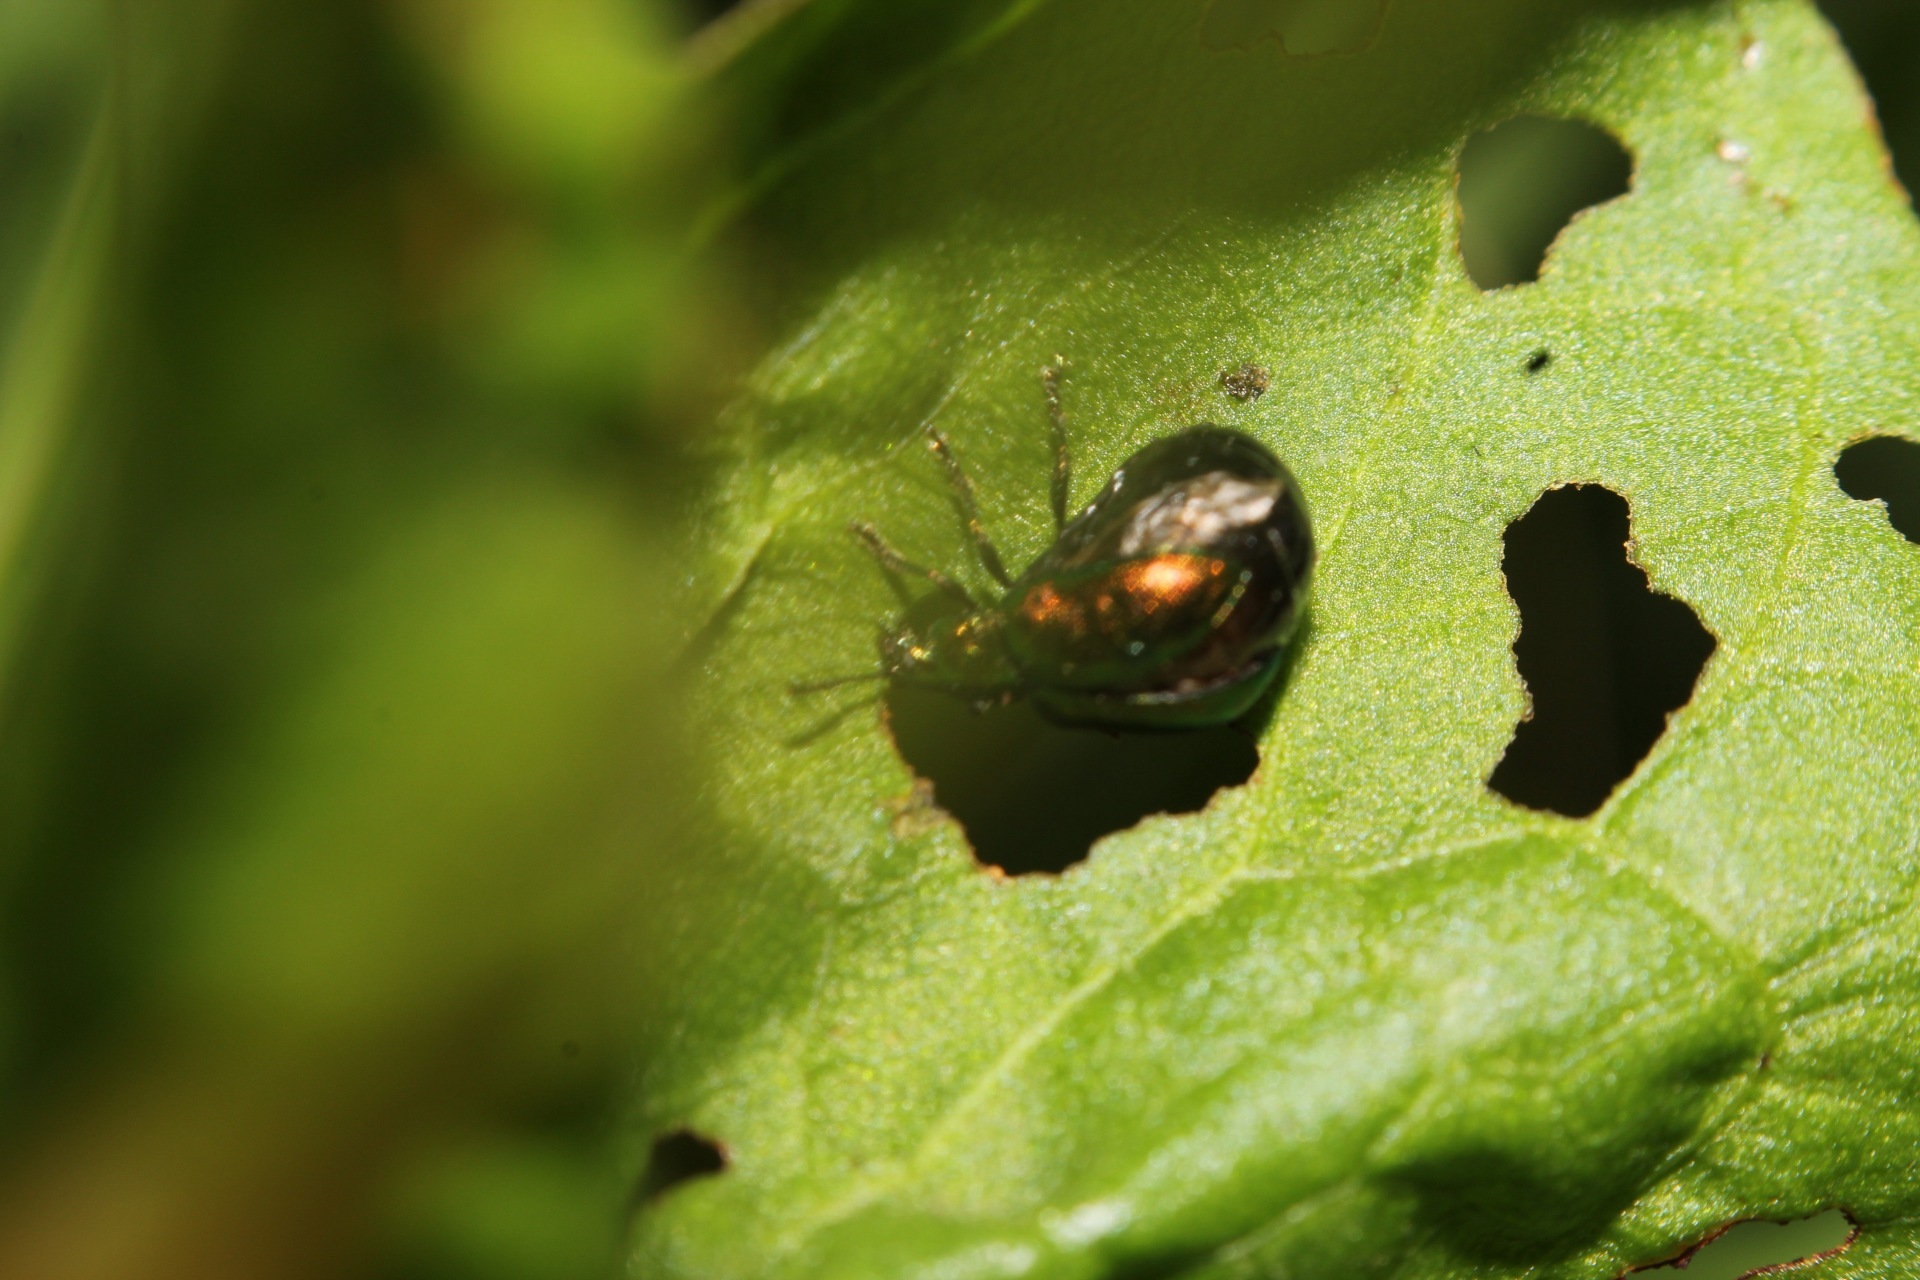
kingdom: Animalia
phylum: Arthropoda
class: Insecta
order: Coleoptera
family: Chrysomelidae
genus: Gastrophysa
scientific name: Gastrophysa viridula
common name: Green dock beetle
